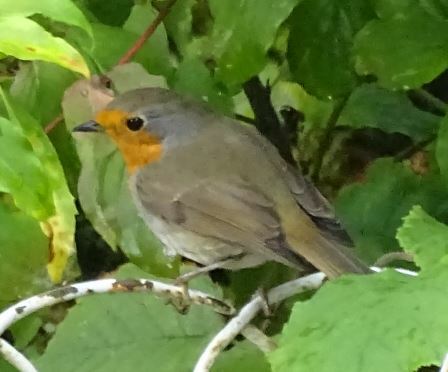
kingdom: Animalia
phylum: Chordata
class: Aves
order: Passeriformes
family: Muscicapidae
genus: Erithacus
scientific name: Erithacus rubecula
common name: European robin
